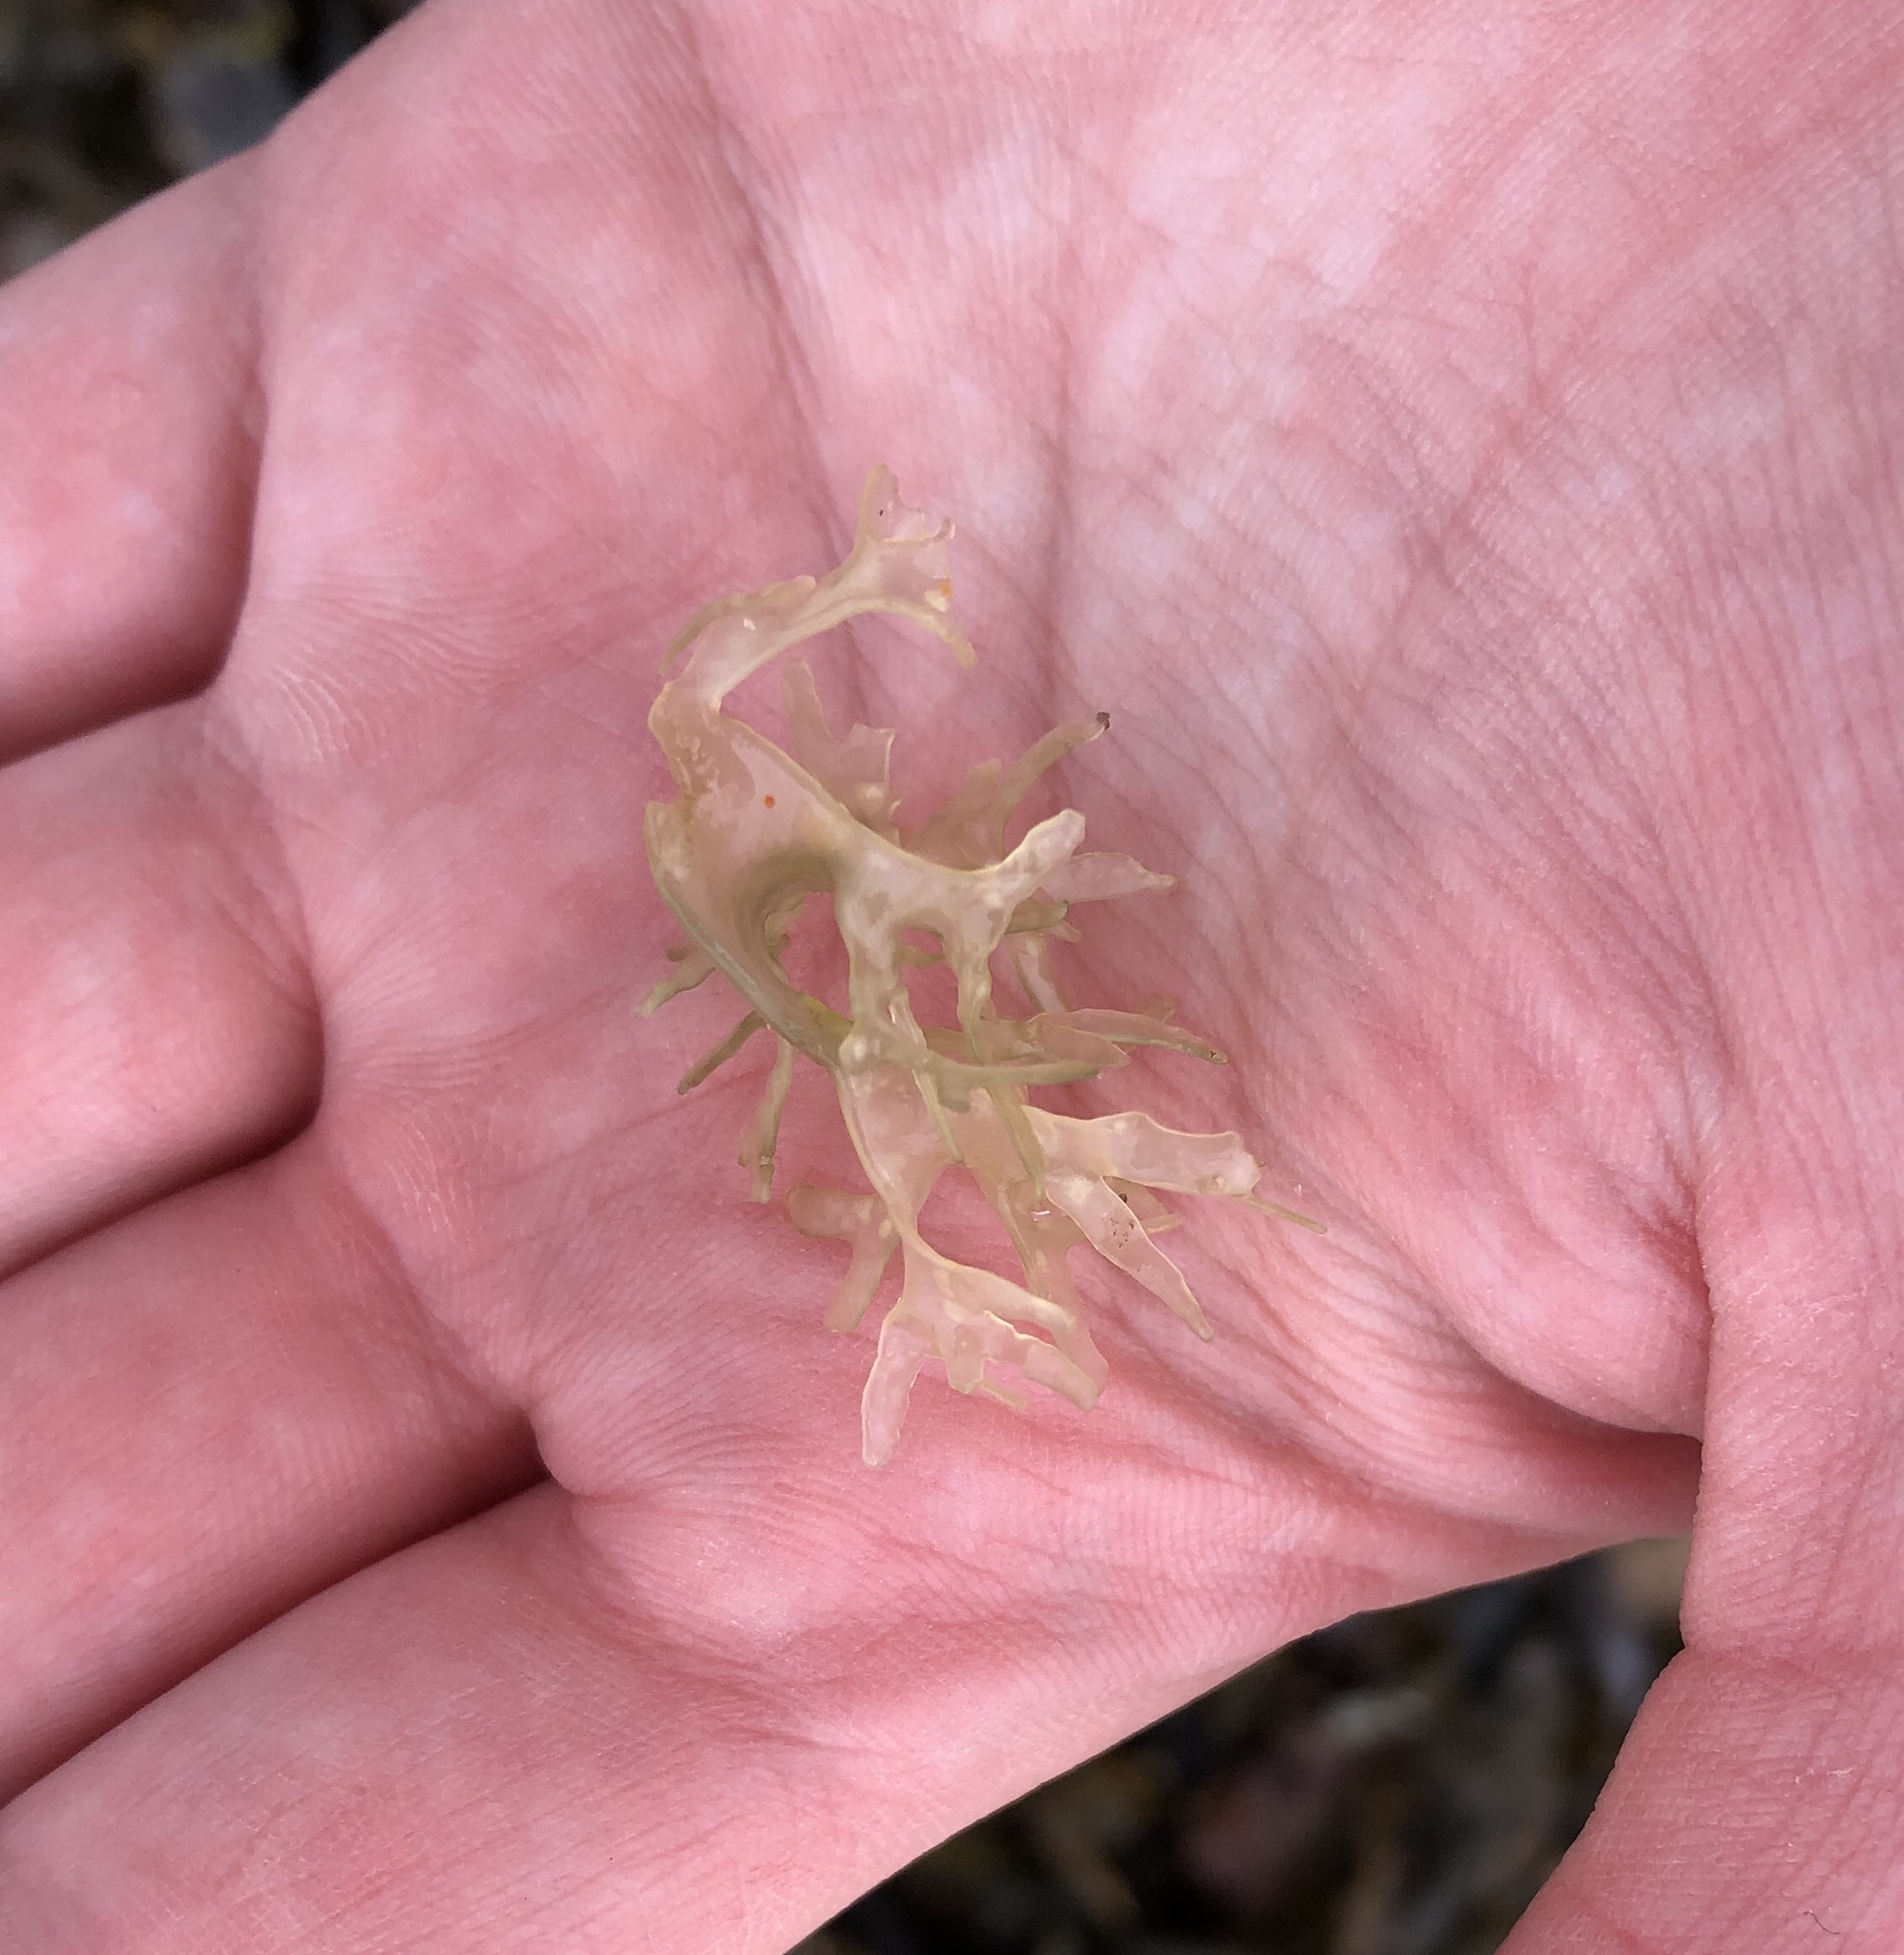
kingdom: Plantae
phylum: Rhodophyta
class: Florideophyceae
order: Gigartinales
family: Gigartinaceae
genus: Chondrus
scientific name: Chondrus crispus
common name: Carrageen
